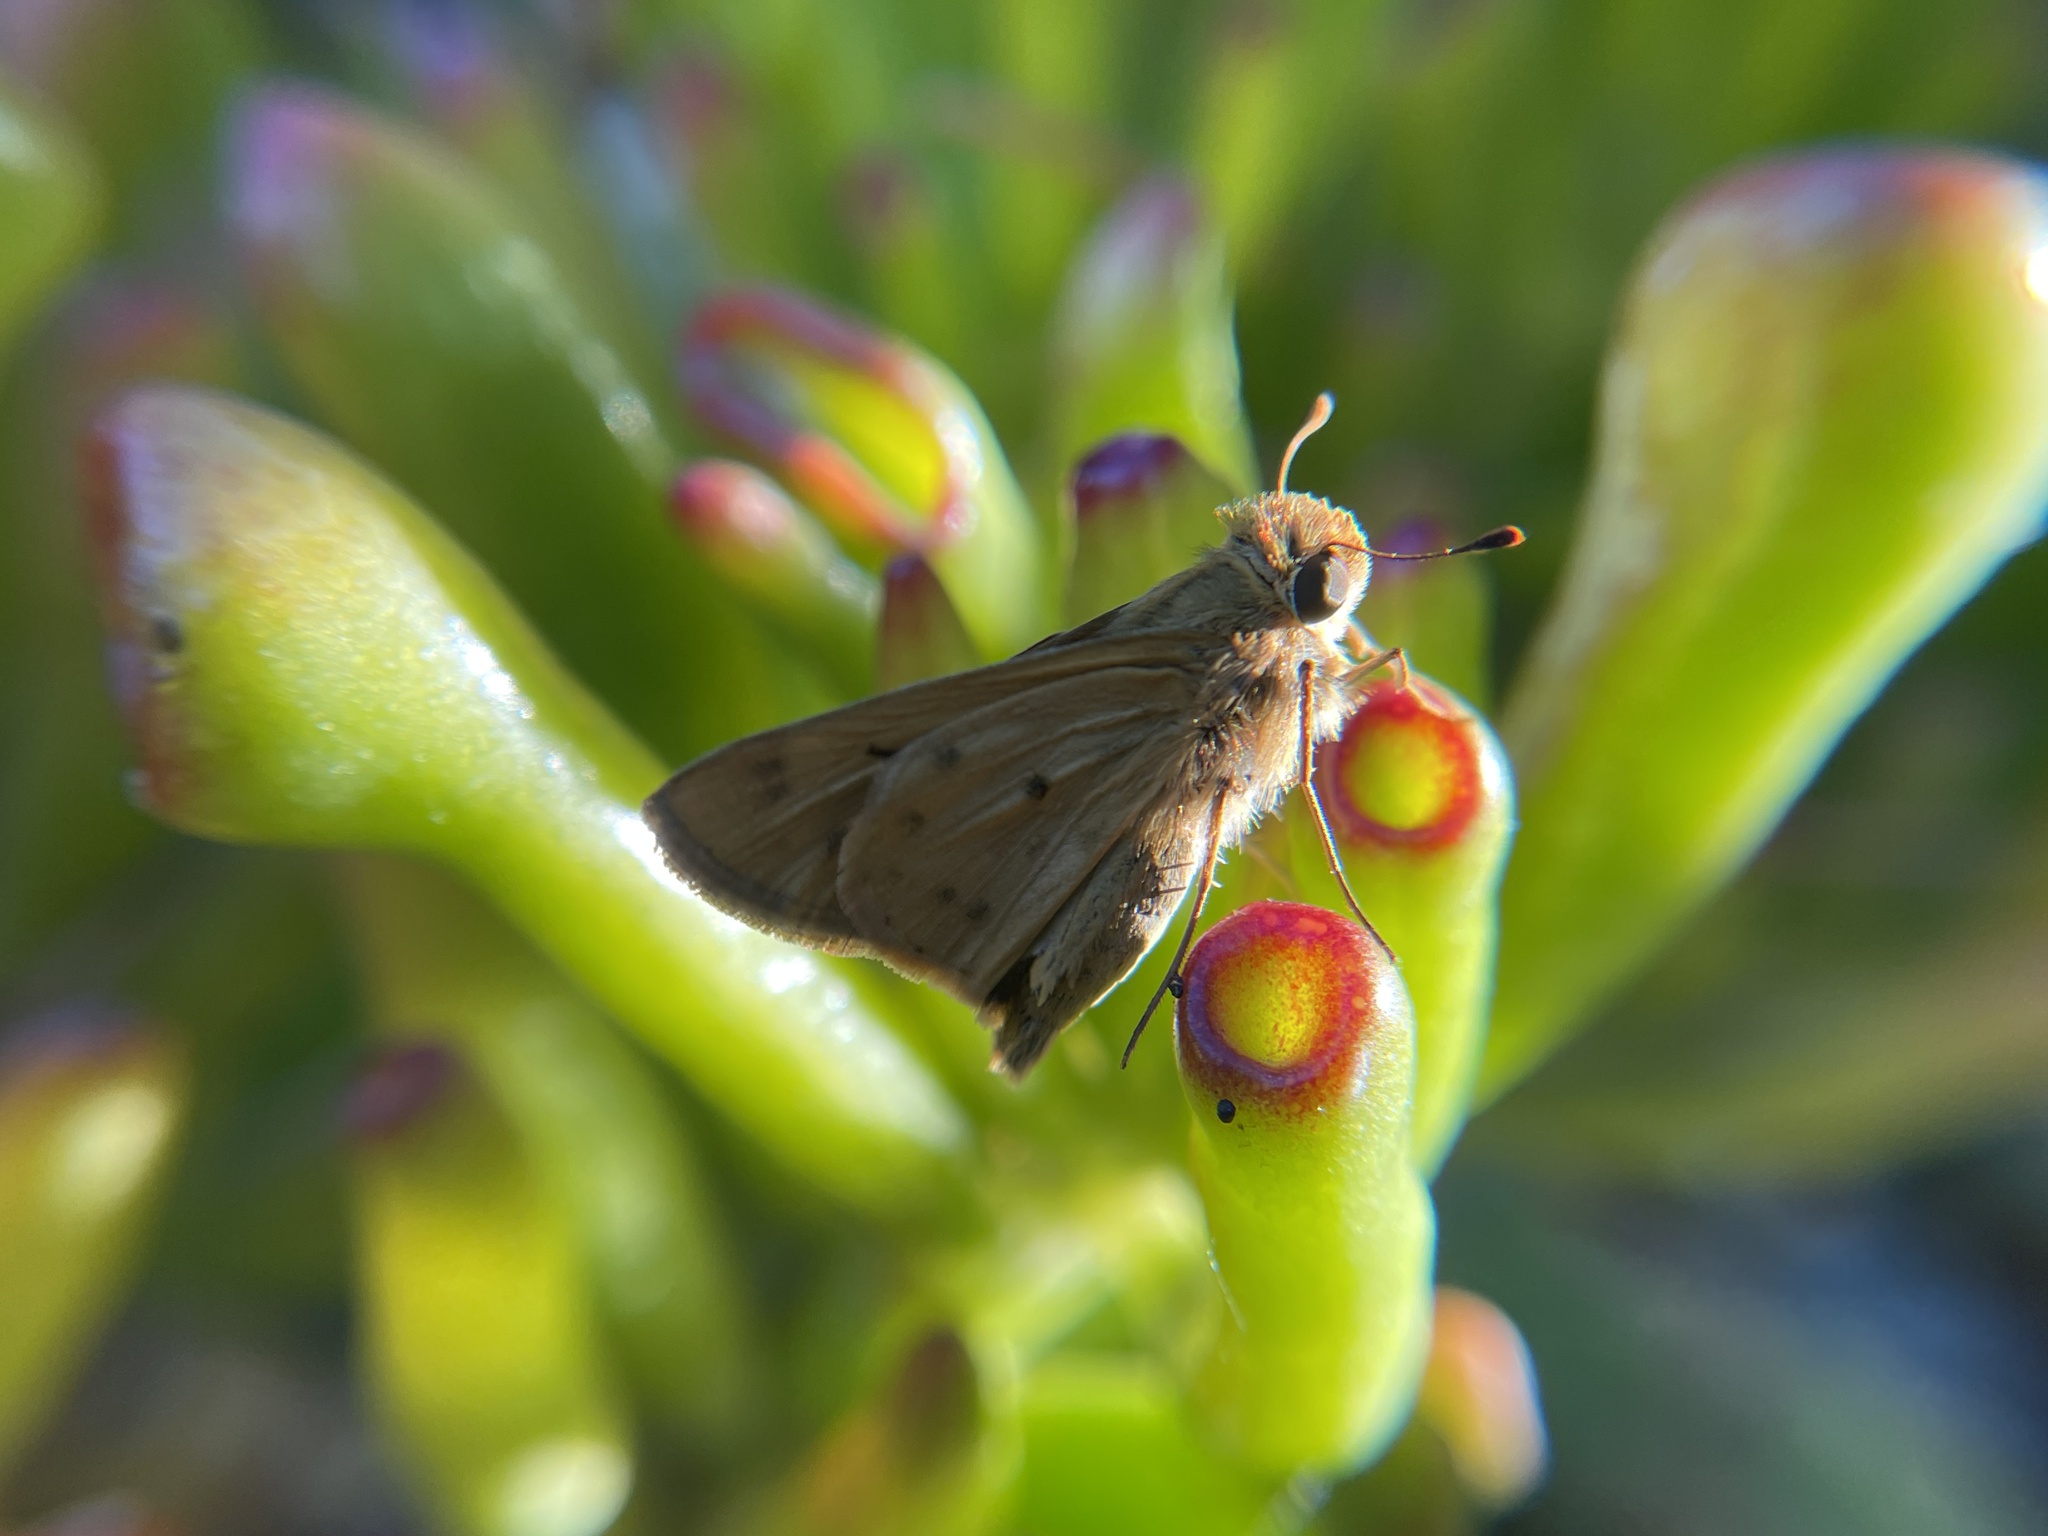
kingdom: Animalia
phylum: Arthropoda
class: Insecta
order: Lepidoptera
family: Hesperiidae
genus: Hylephila
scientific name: Hylephila phyleus
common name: Fiery skipper
